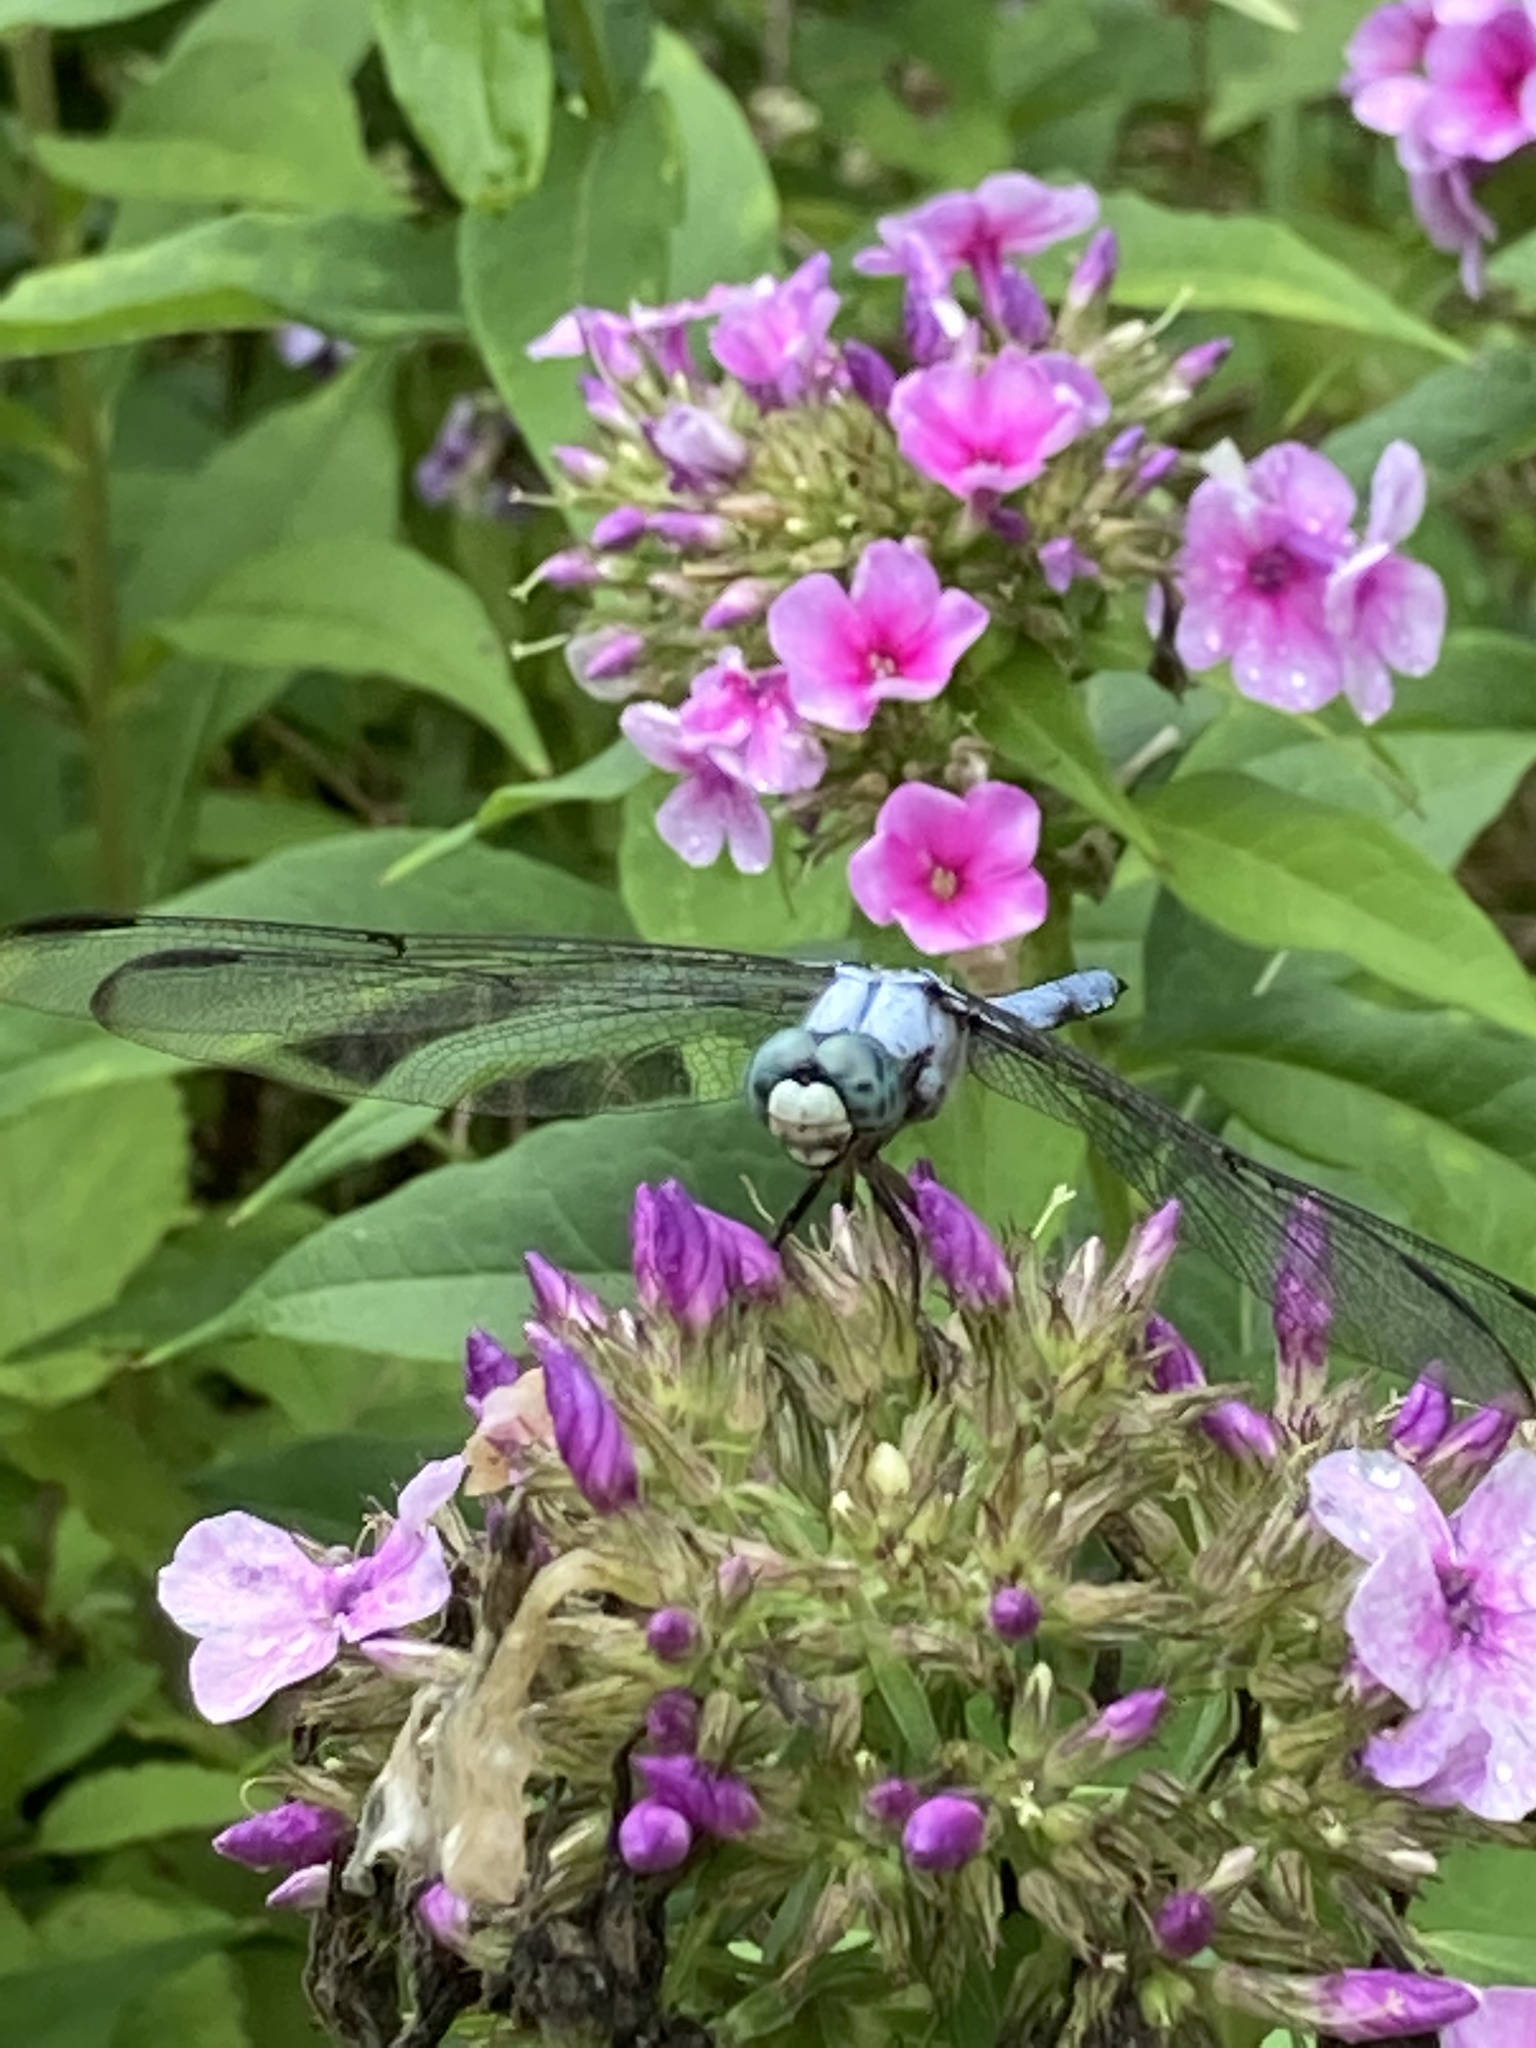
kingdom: Animalia
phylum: Arthropoda
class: Insecta
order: Odonata
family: Libellulidae
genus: Libellula
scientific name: Libellula vibrans
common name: Great blue skimmer
